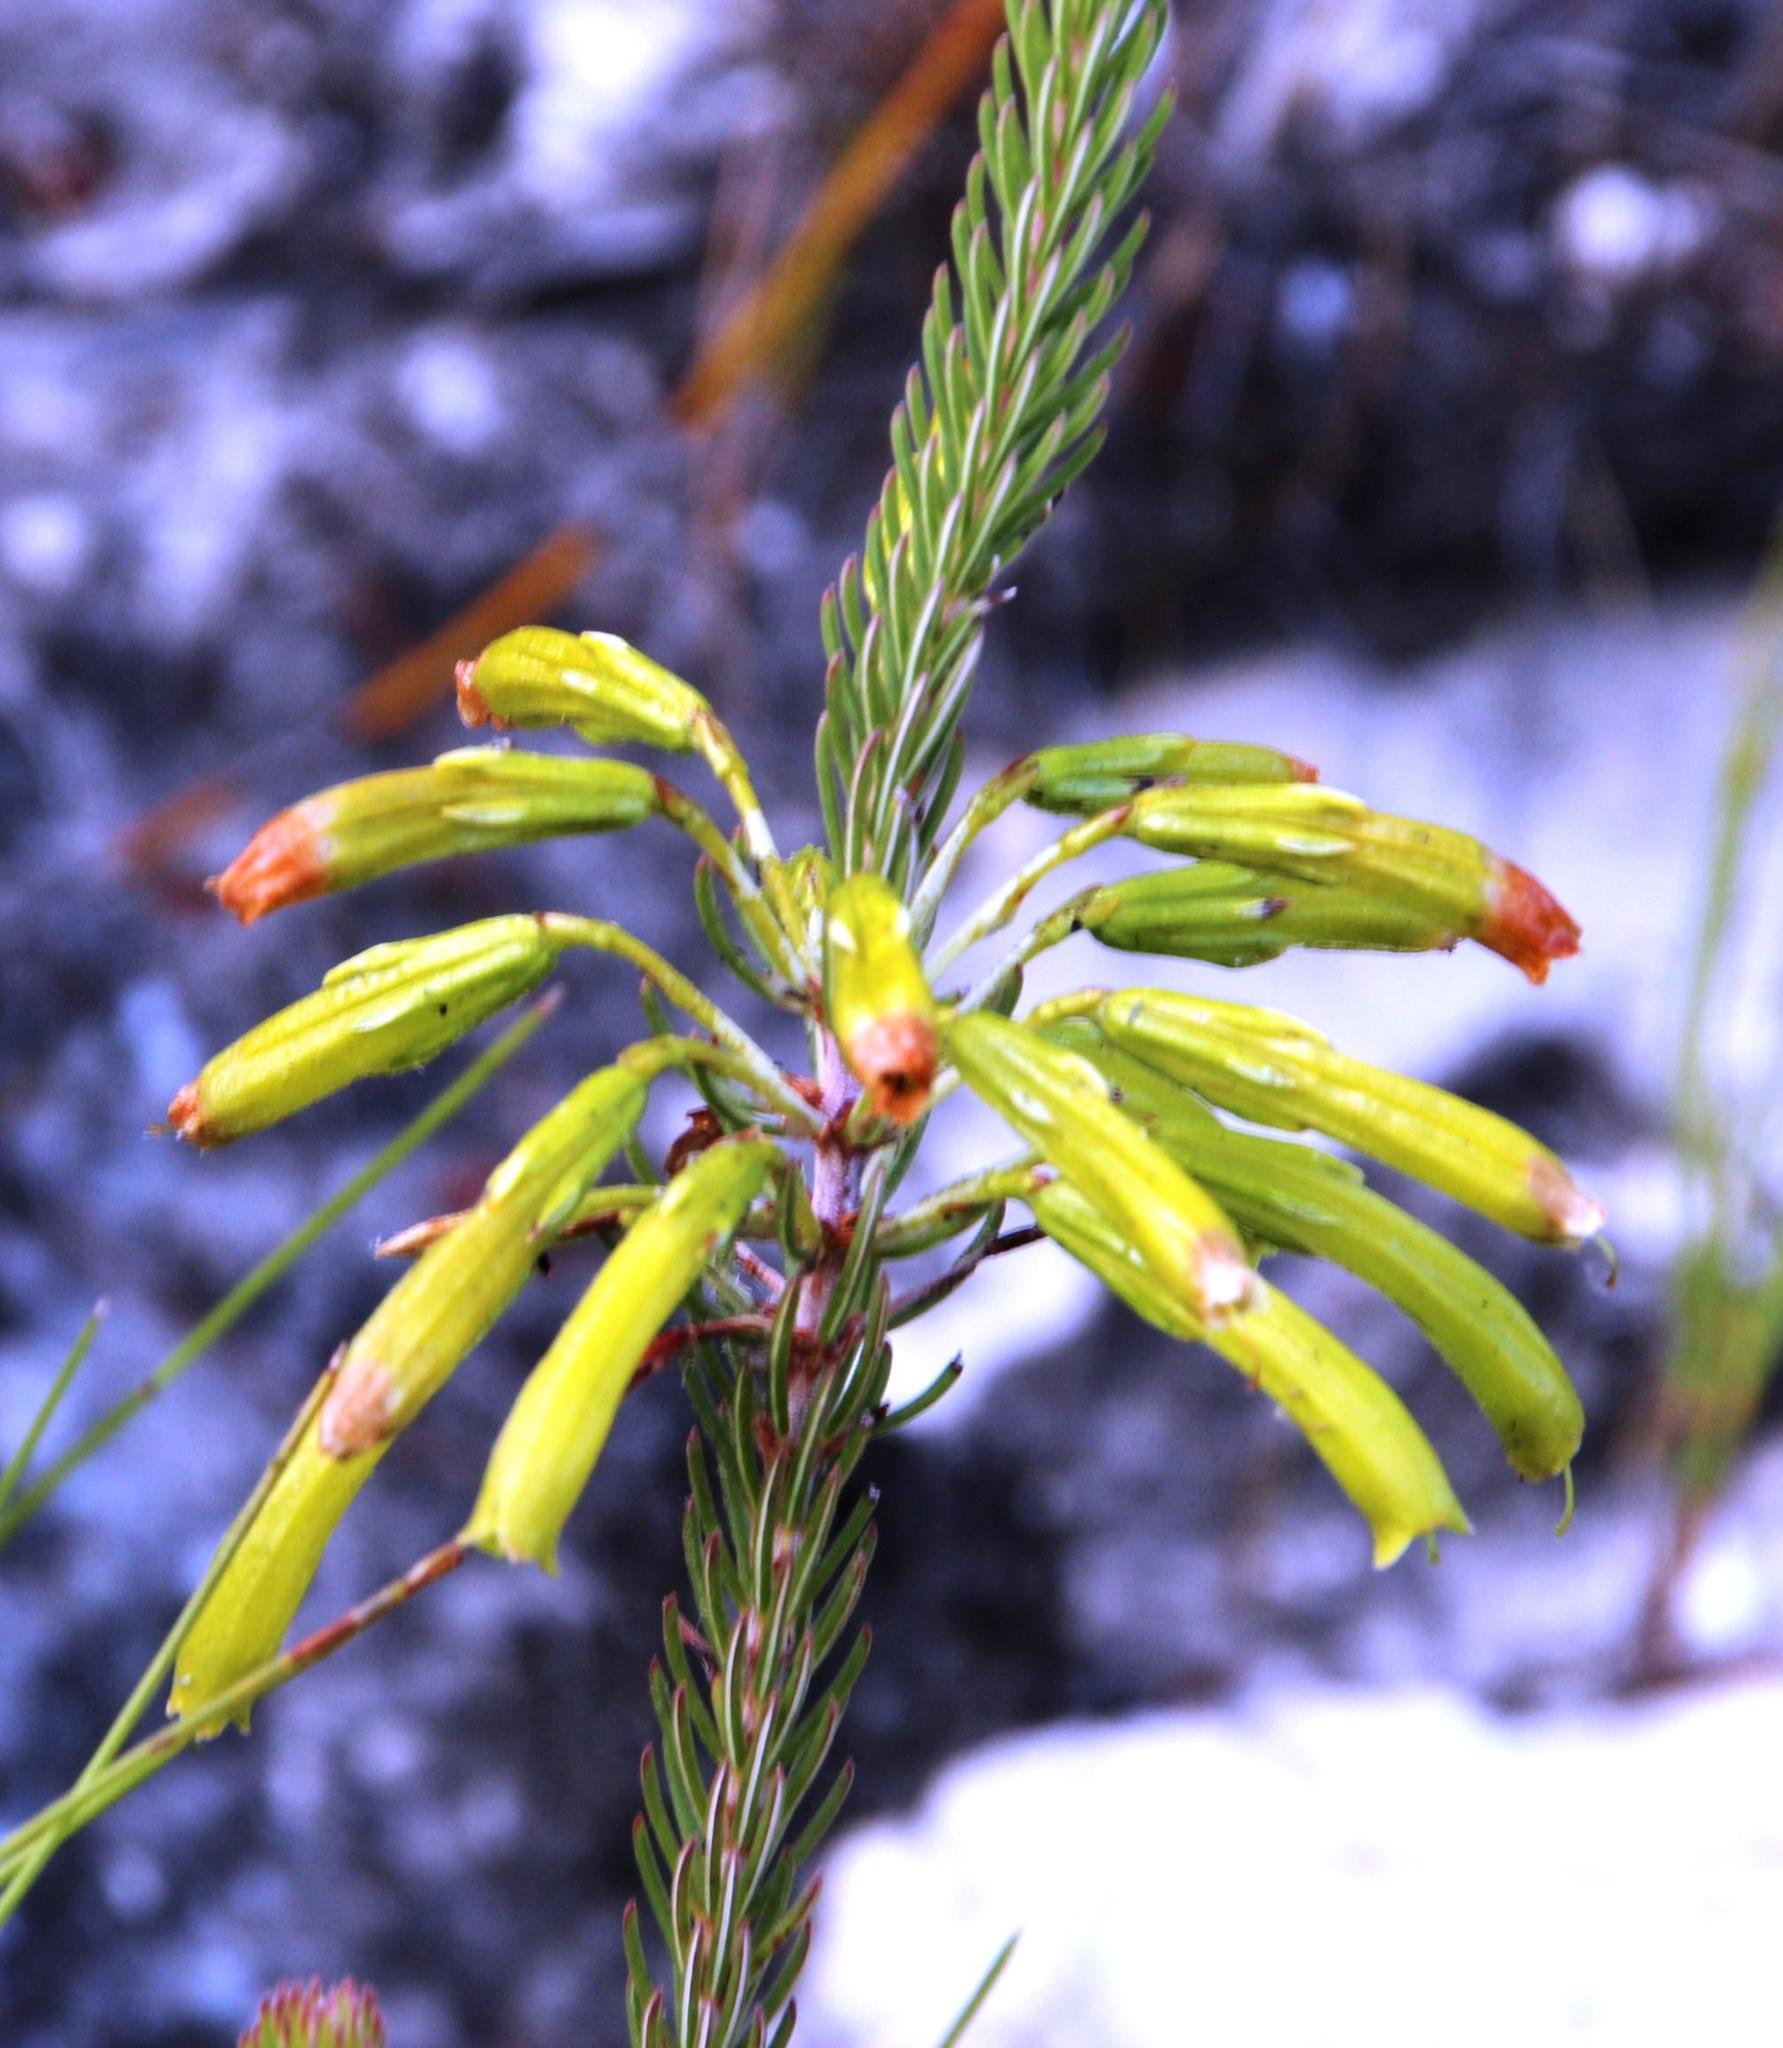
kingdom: Plantae
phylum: Tracheophyta
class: Magnoliopsida
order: Ericales
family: Ericaceae
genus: Erica
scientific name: Erica thomae
